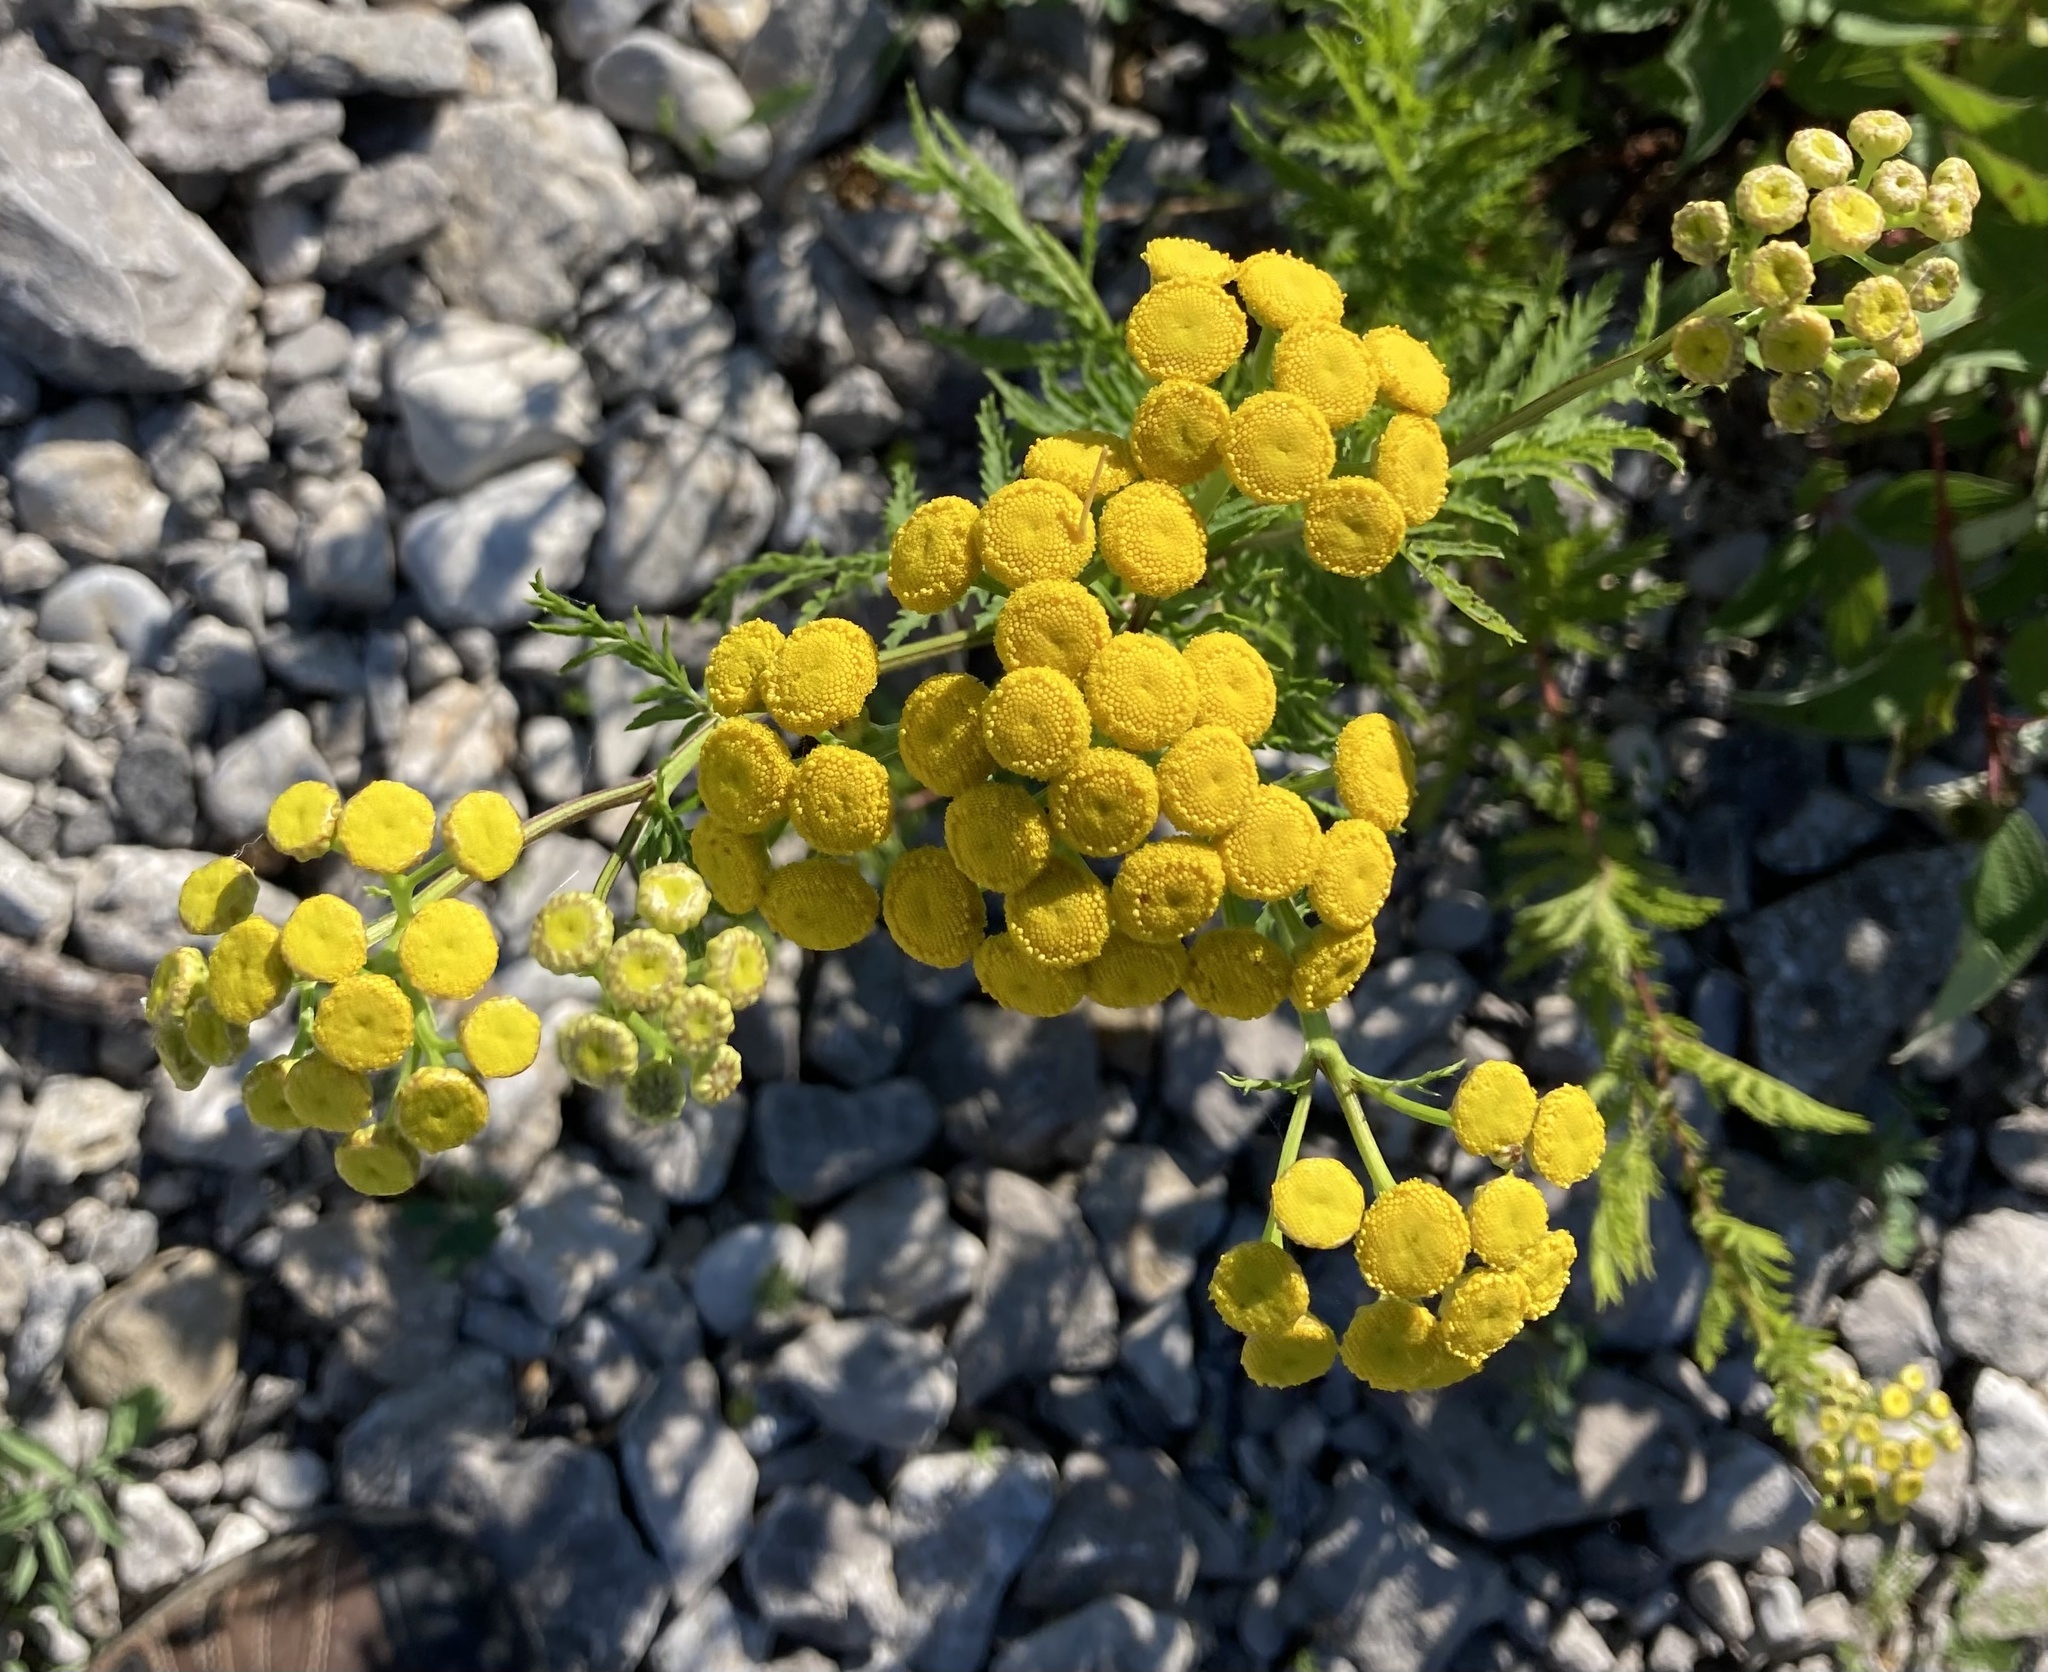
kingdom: Plantae
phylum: Tracheophyta
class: Magnoliopsida
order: Asterales
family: Asteraceae
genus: Tanacetum
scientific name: Tanacetum vulgare
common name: Common tansy
